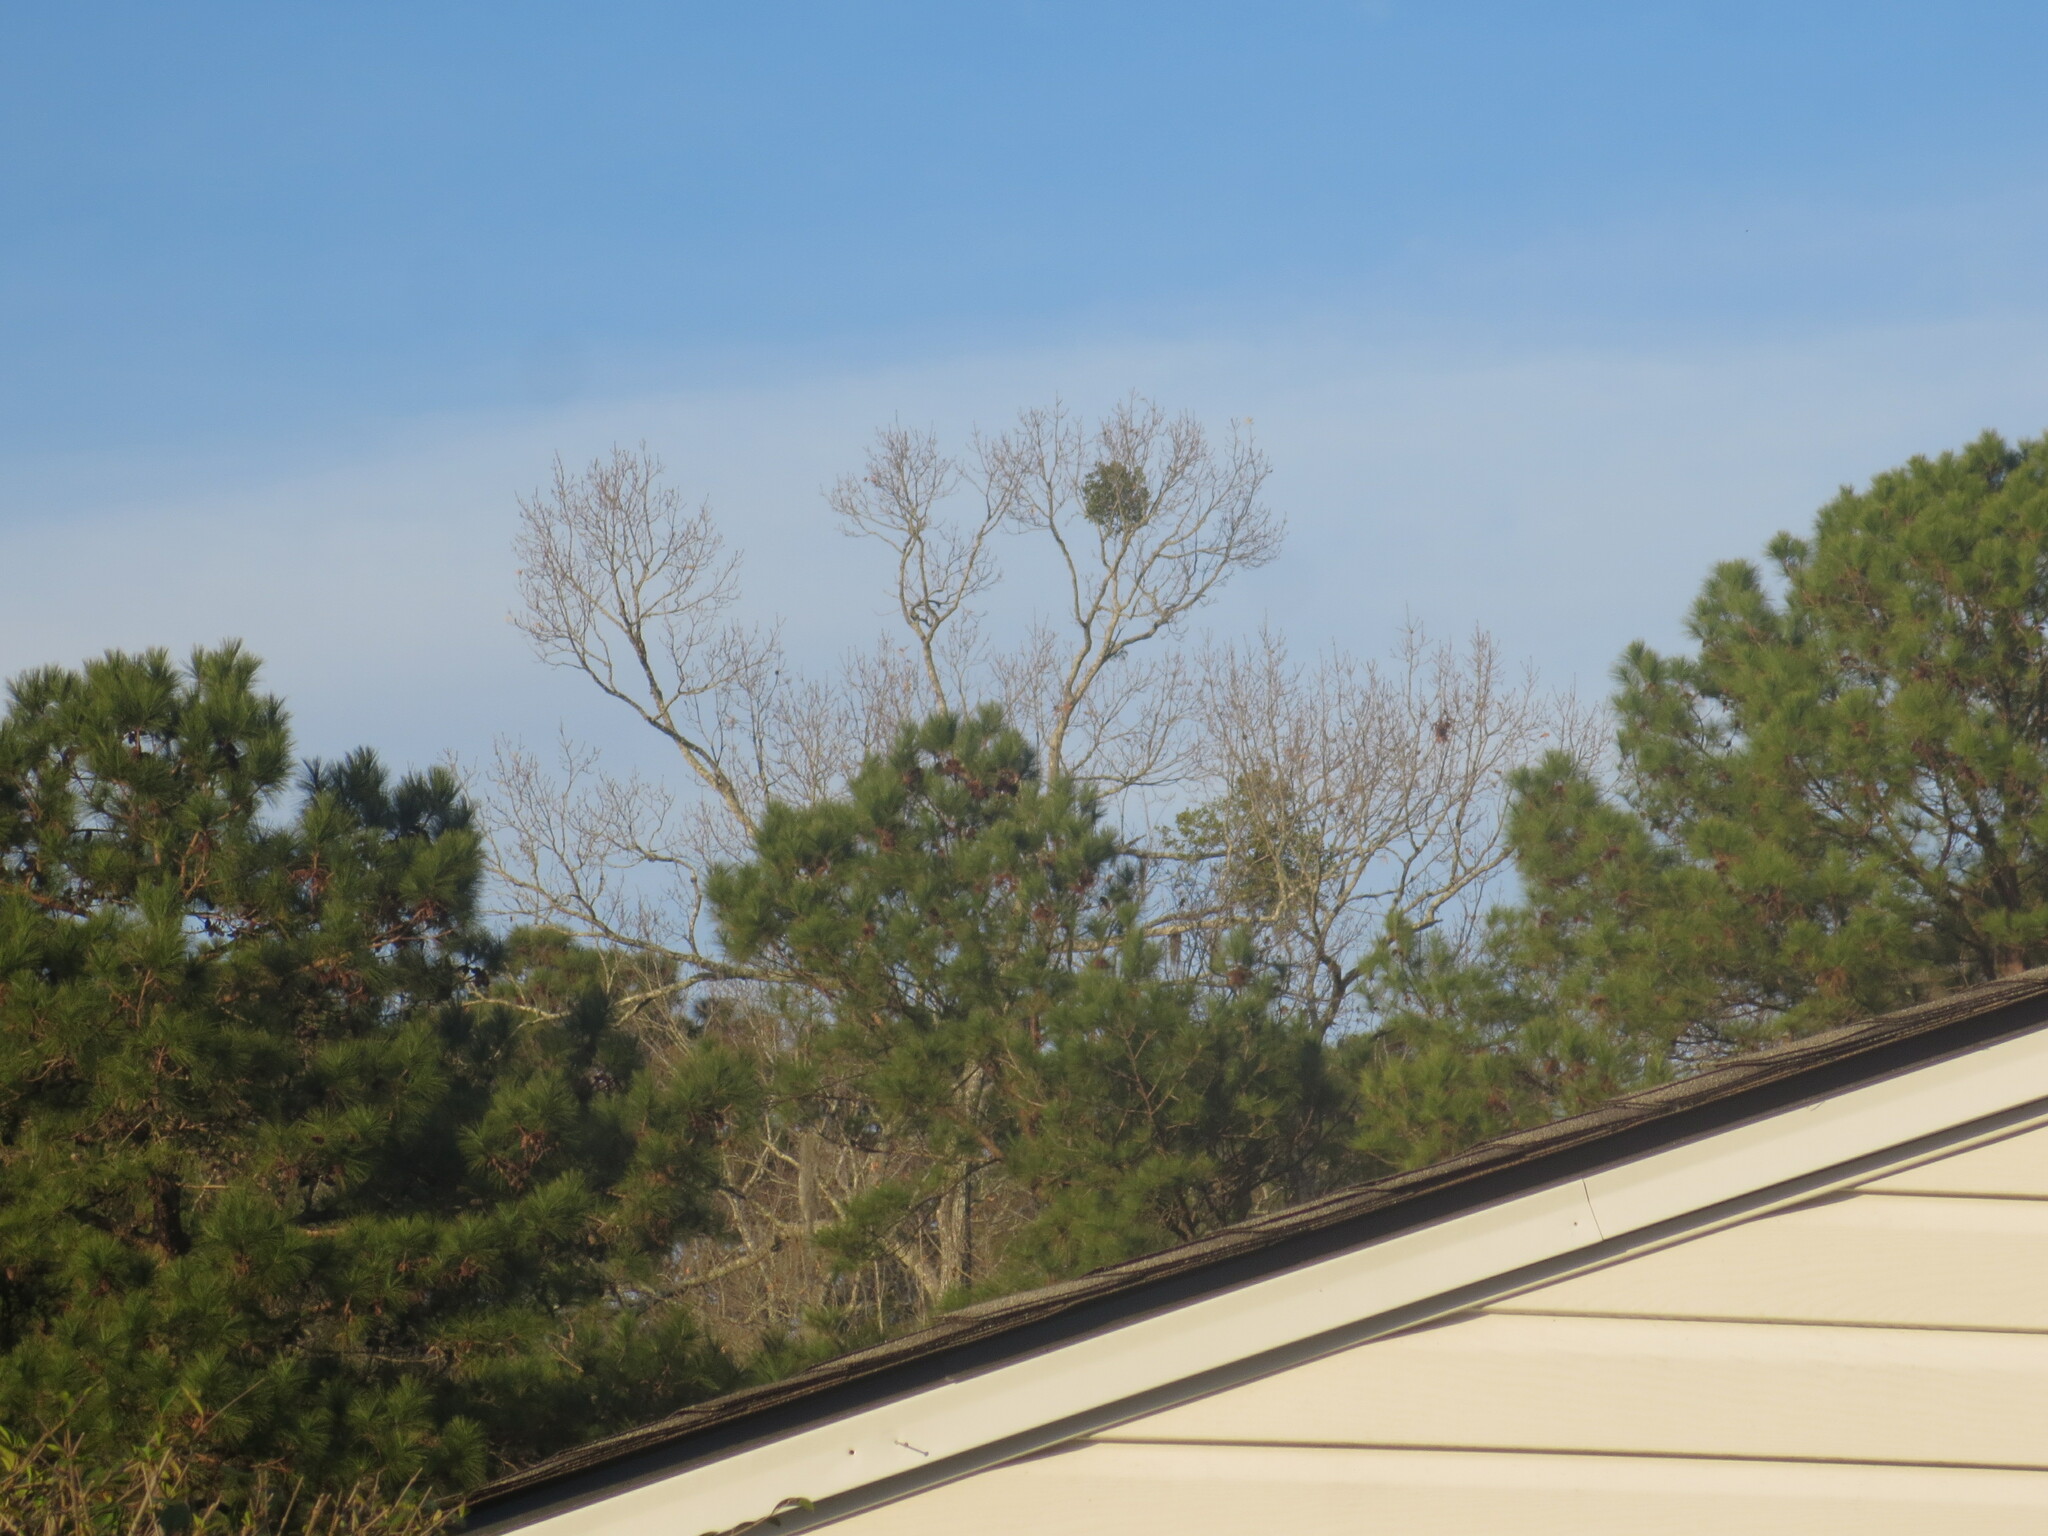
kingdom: Plantae
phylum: Tracheophyta
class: Magnoliopsida
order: Santalales
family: Viscaceae
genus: Phoradendron
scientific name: Phoradendron leucarpum
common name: Pacific mistletoe
